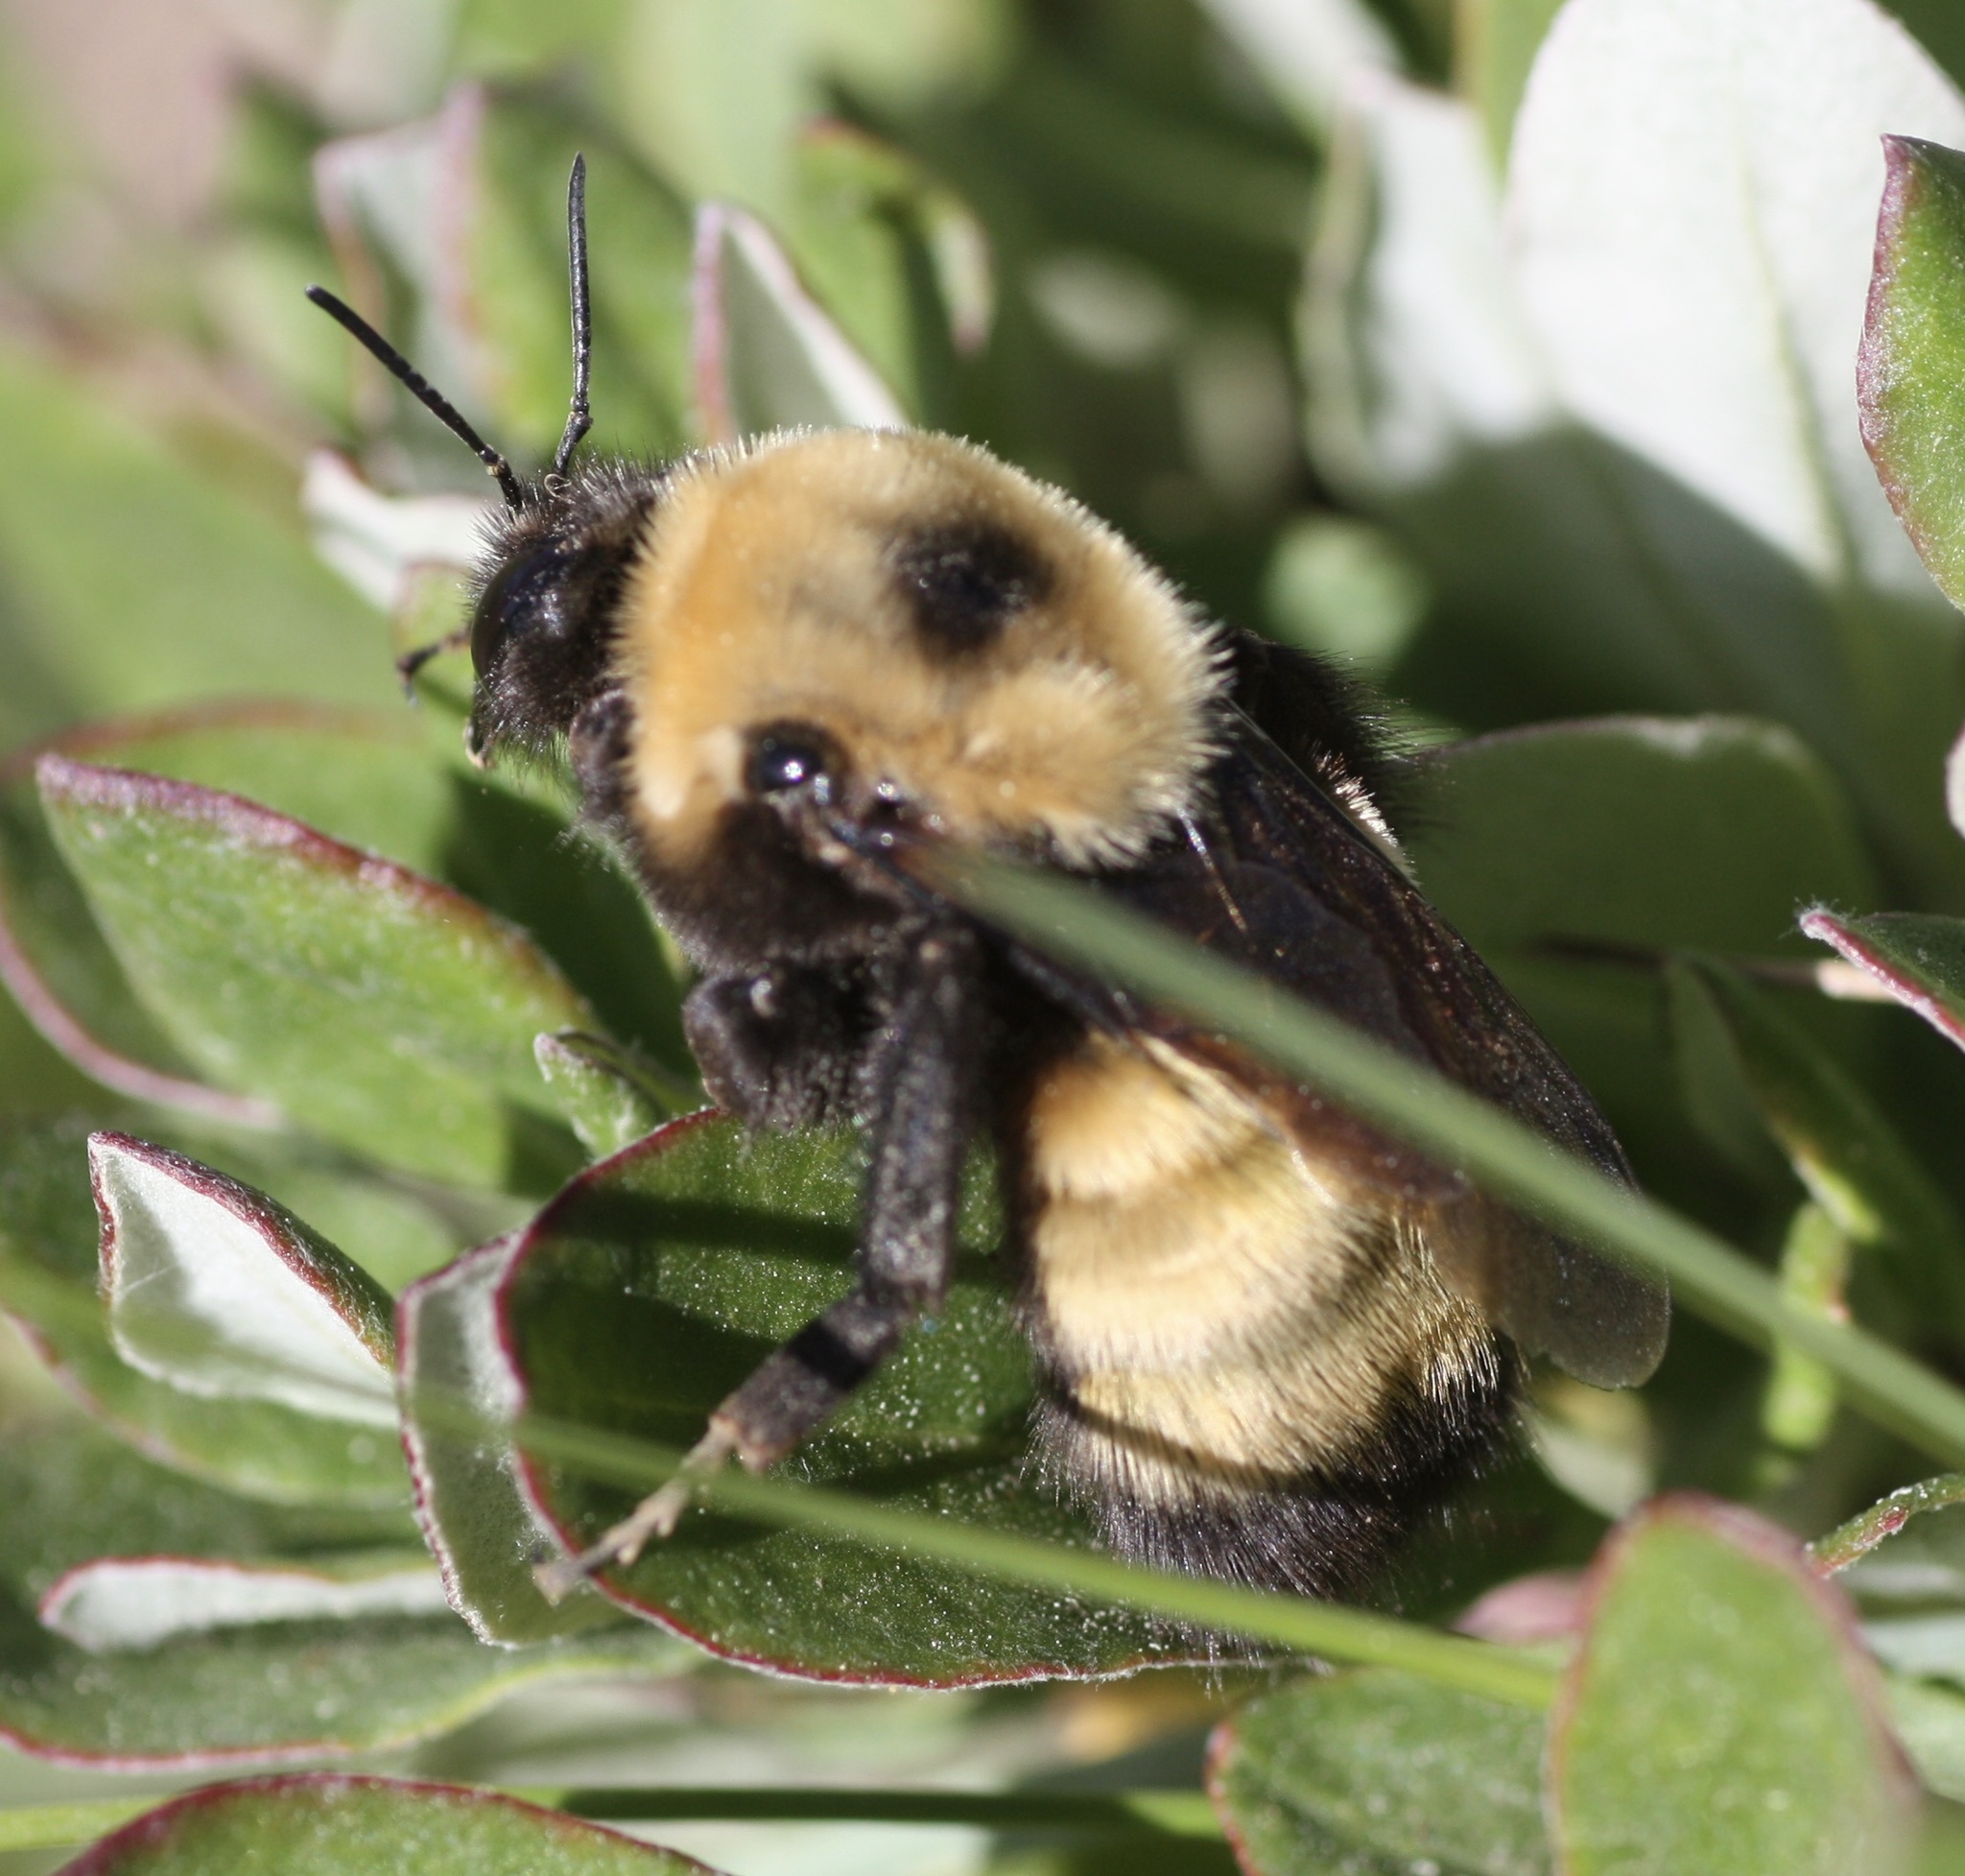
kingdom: Animalia
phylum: Arthropoda
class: Insecta
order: Hymenoptera
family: Apidae
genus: Bombus
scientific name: Bombus nevadensis
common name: Nevada bumble bee
